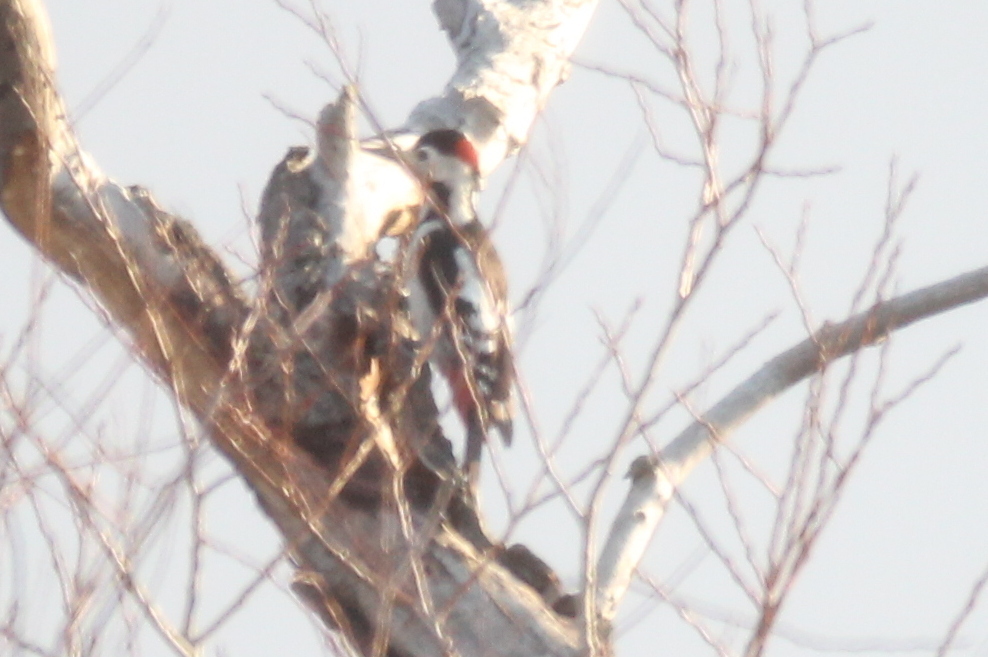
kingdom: Animalia
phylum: Chordata
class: Aves
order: Piciformes
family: Picidae
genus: Dendrocopos
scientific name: Dendrocopos syriacus
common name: Syrian woodpecker
